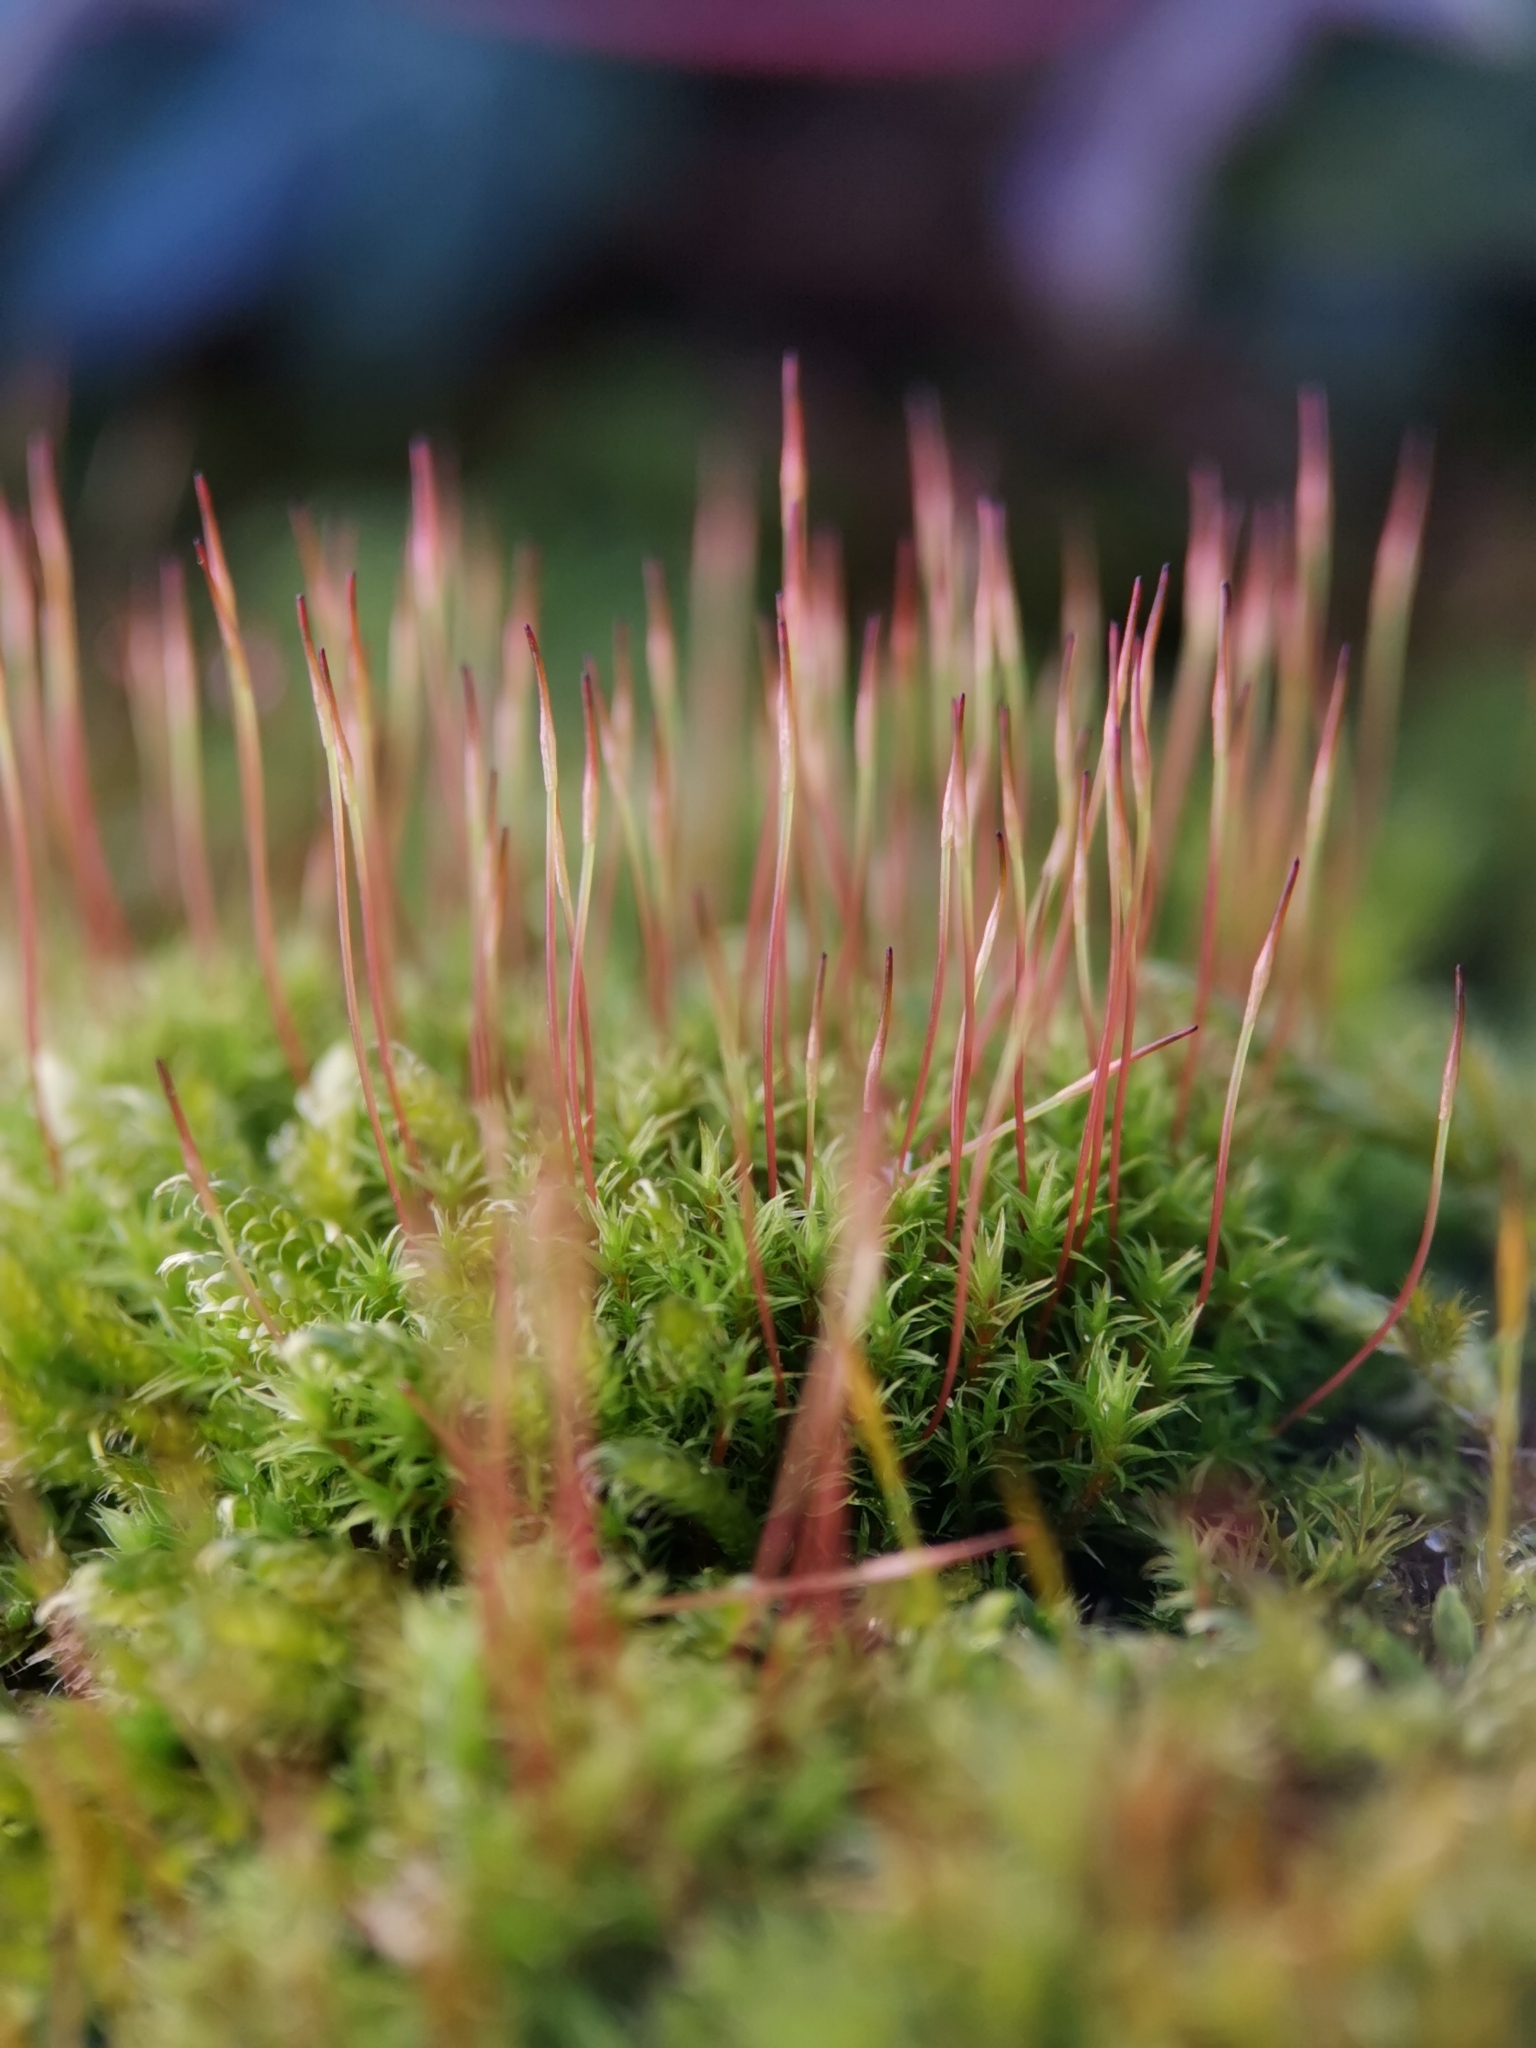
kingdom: Plantae
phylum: Bryophyta
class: Bryopsida
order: Dicranales
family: Ditrichaceae
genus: Ceratodon
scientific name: Ceratodon purpureus
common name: Redshank
